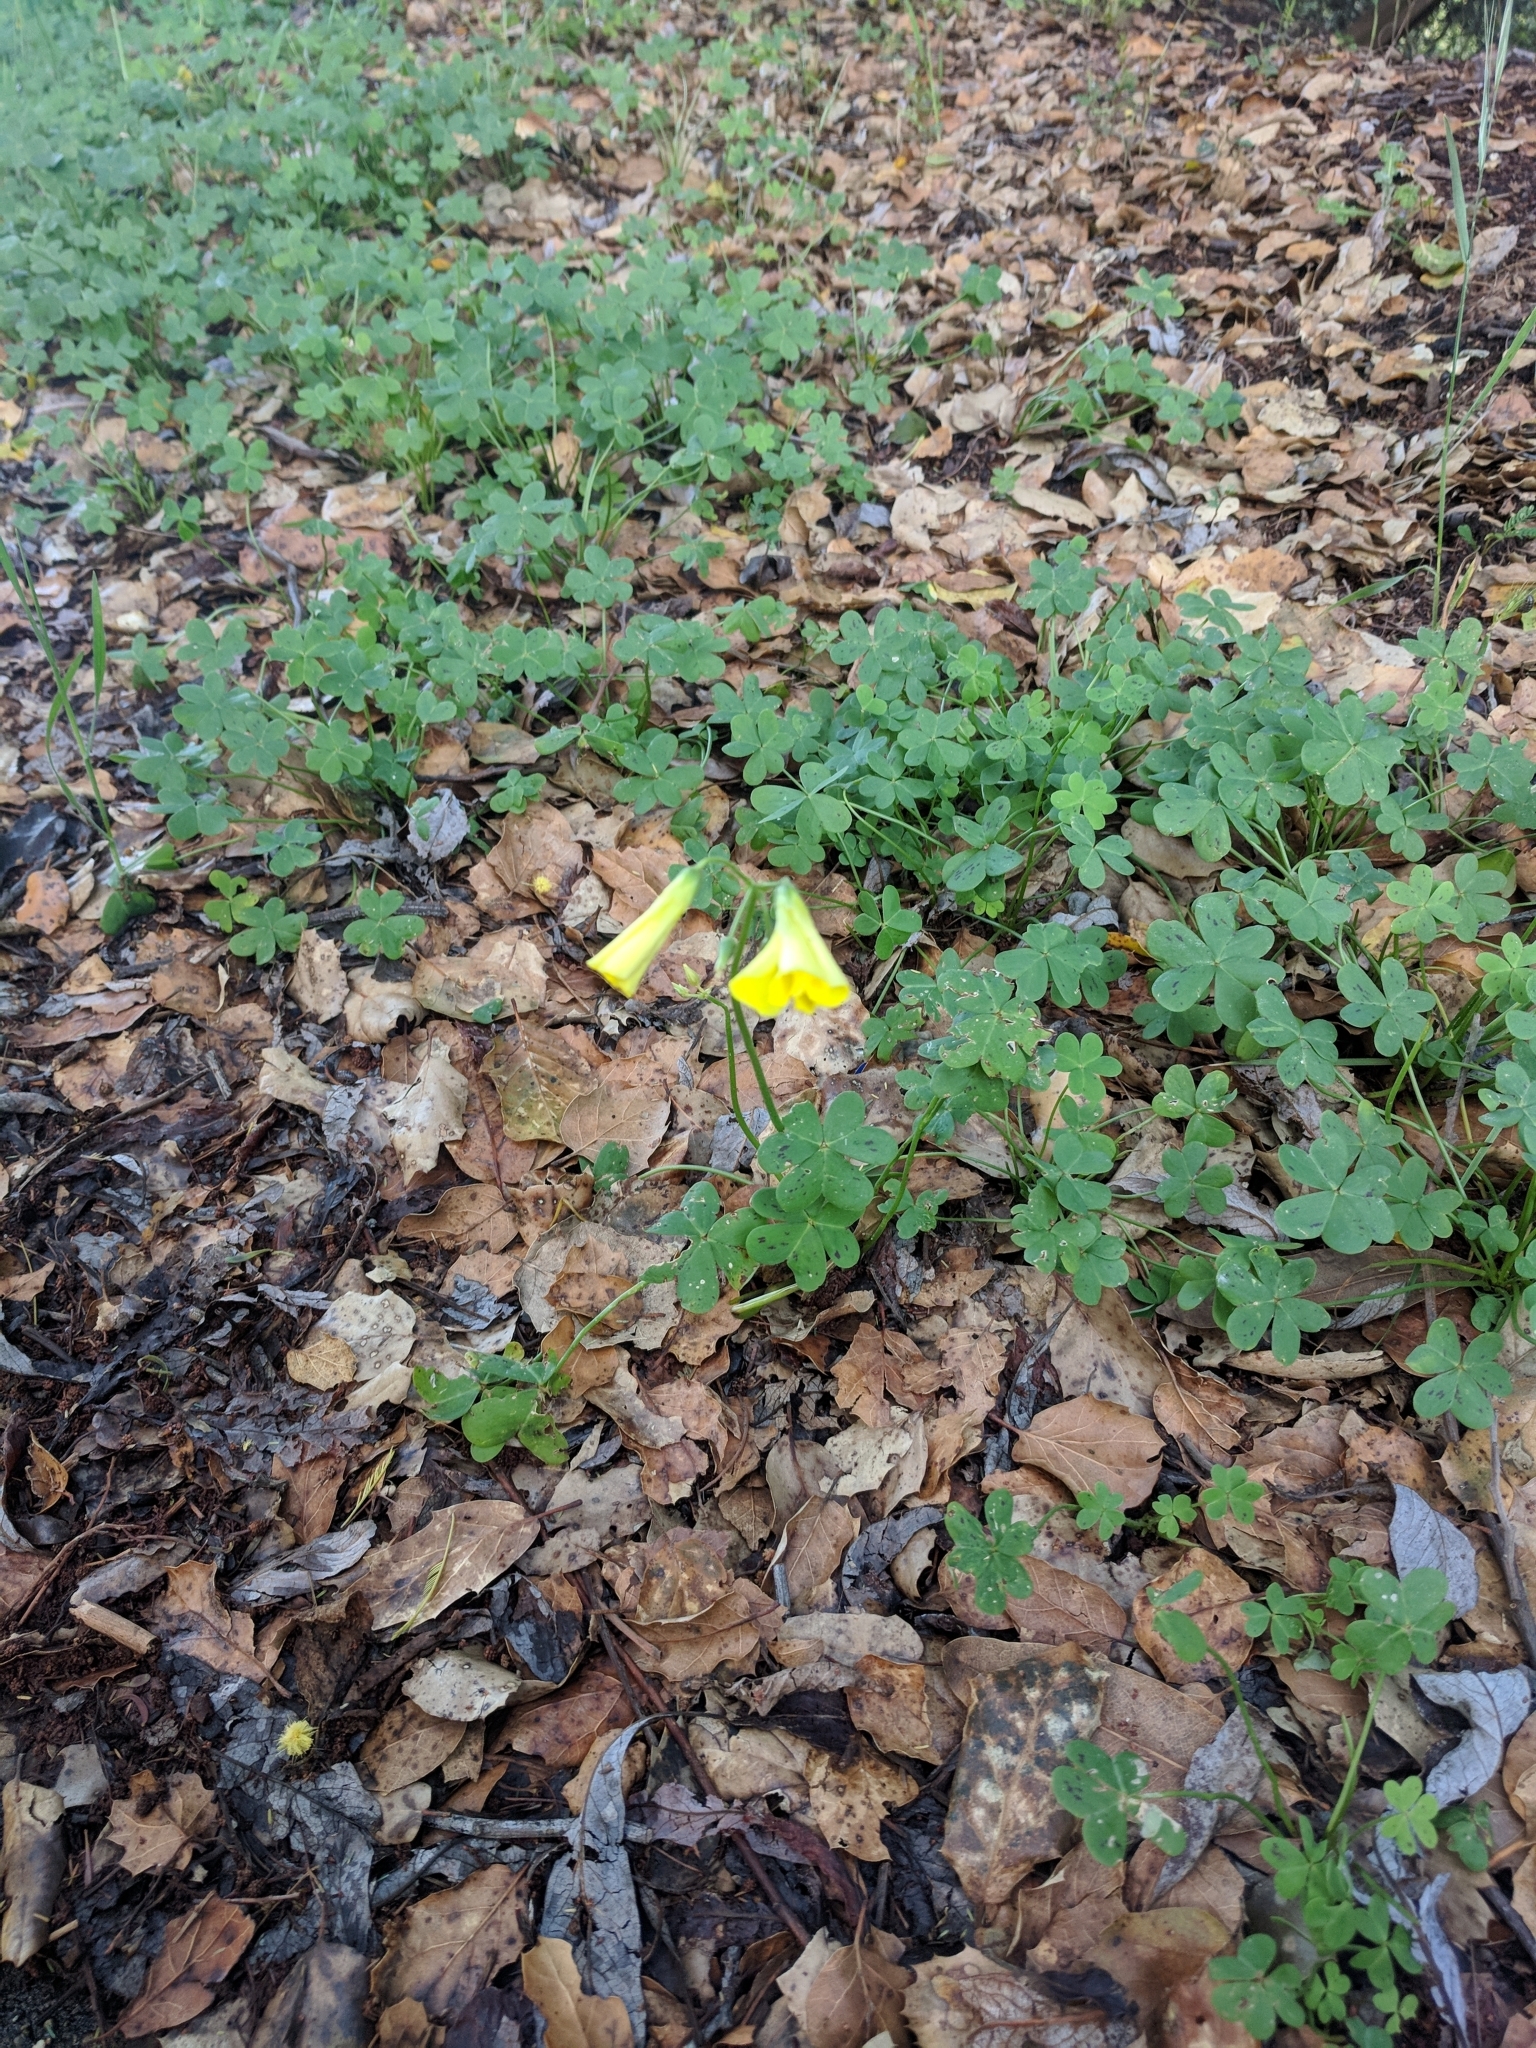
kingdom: Plantae
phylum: Tracheophyta
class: Magnoliopsida
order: Oxalidales
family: Oxalidaceae
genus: Oxalis
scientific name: Oxalis pes-caprae
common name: Bermuda-buttercup
